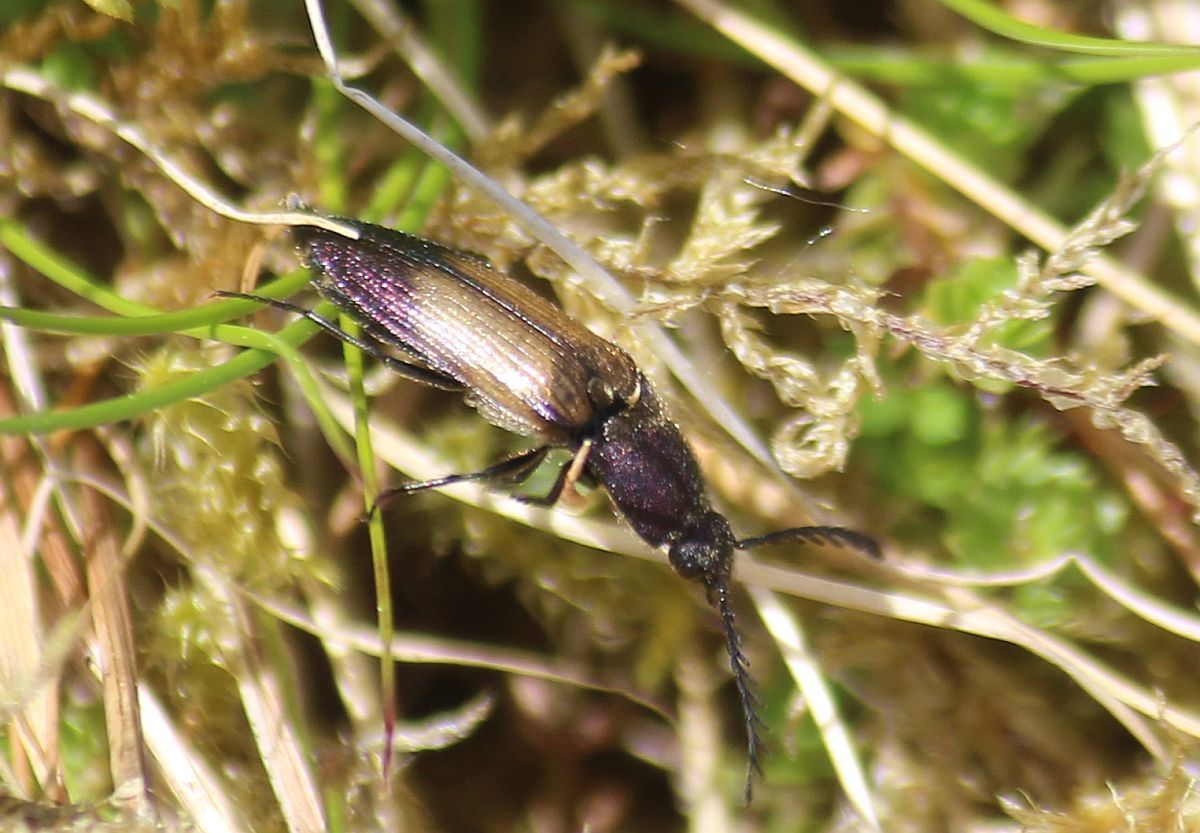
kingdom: Animalia
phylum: Arthropoda
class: Insecta
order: Coleoptera
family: Elateridae
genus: Ctenicera
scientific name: Ctenicera cuprea
